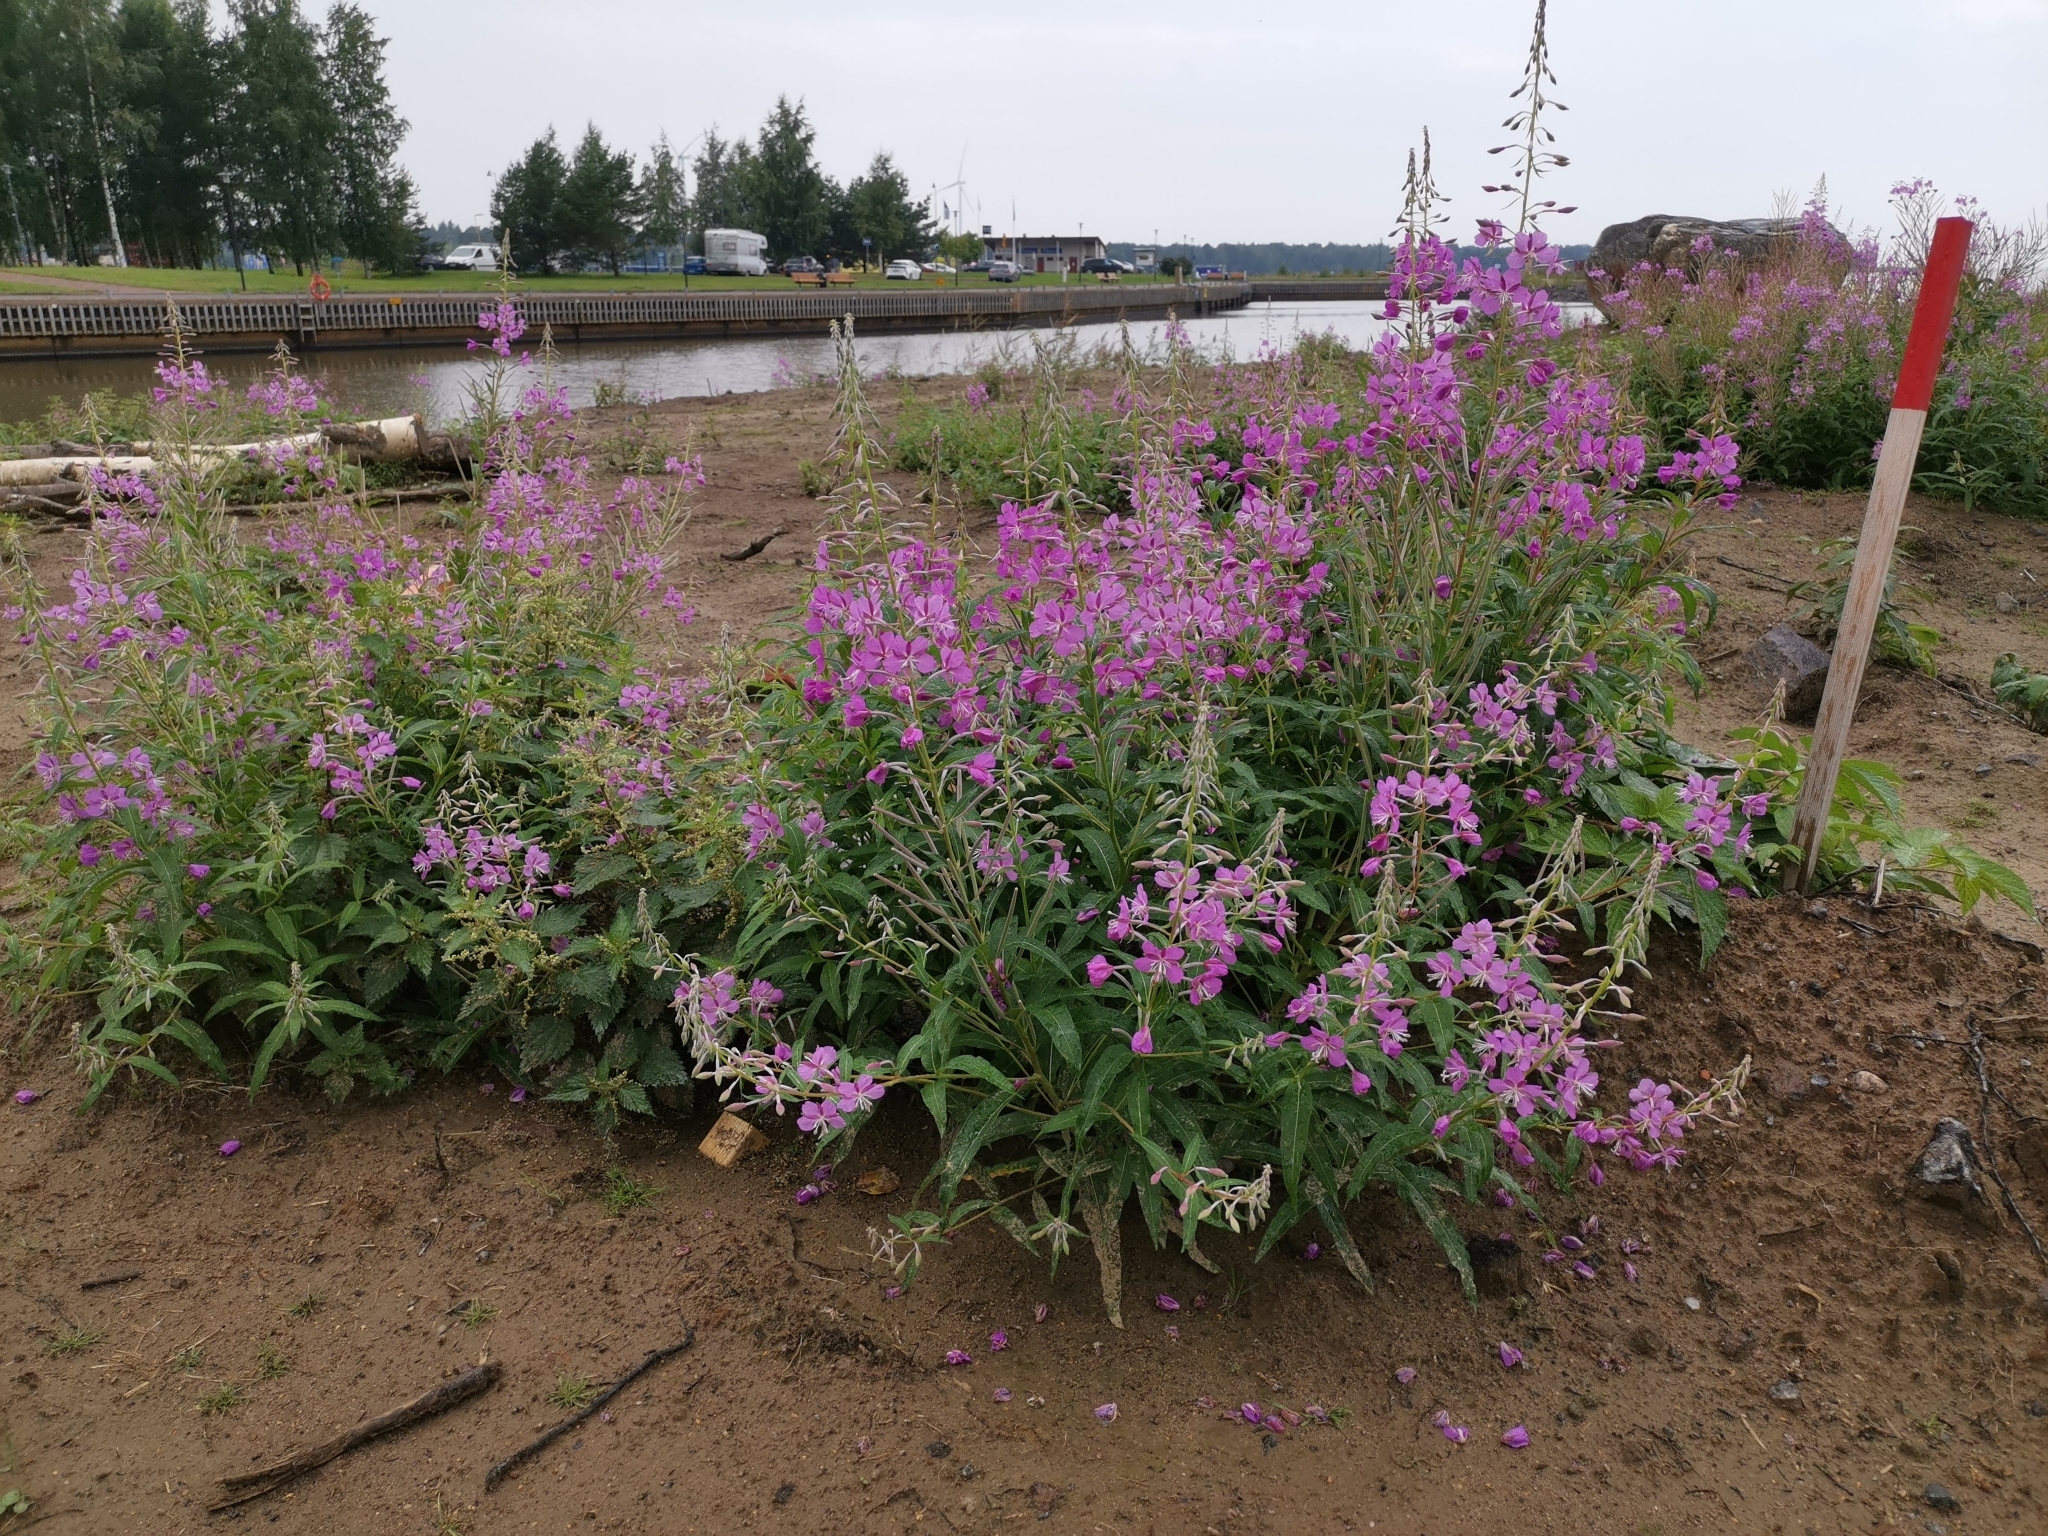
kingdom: Plantae
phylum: Tracheophyta
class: Magnoliopsida
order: Myrtales
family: Onagraceae
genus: Chamaenerion
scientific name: Chamaenerion angustifolium
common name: Fireweed
